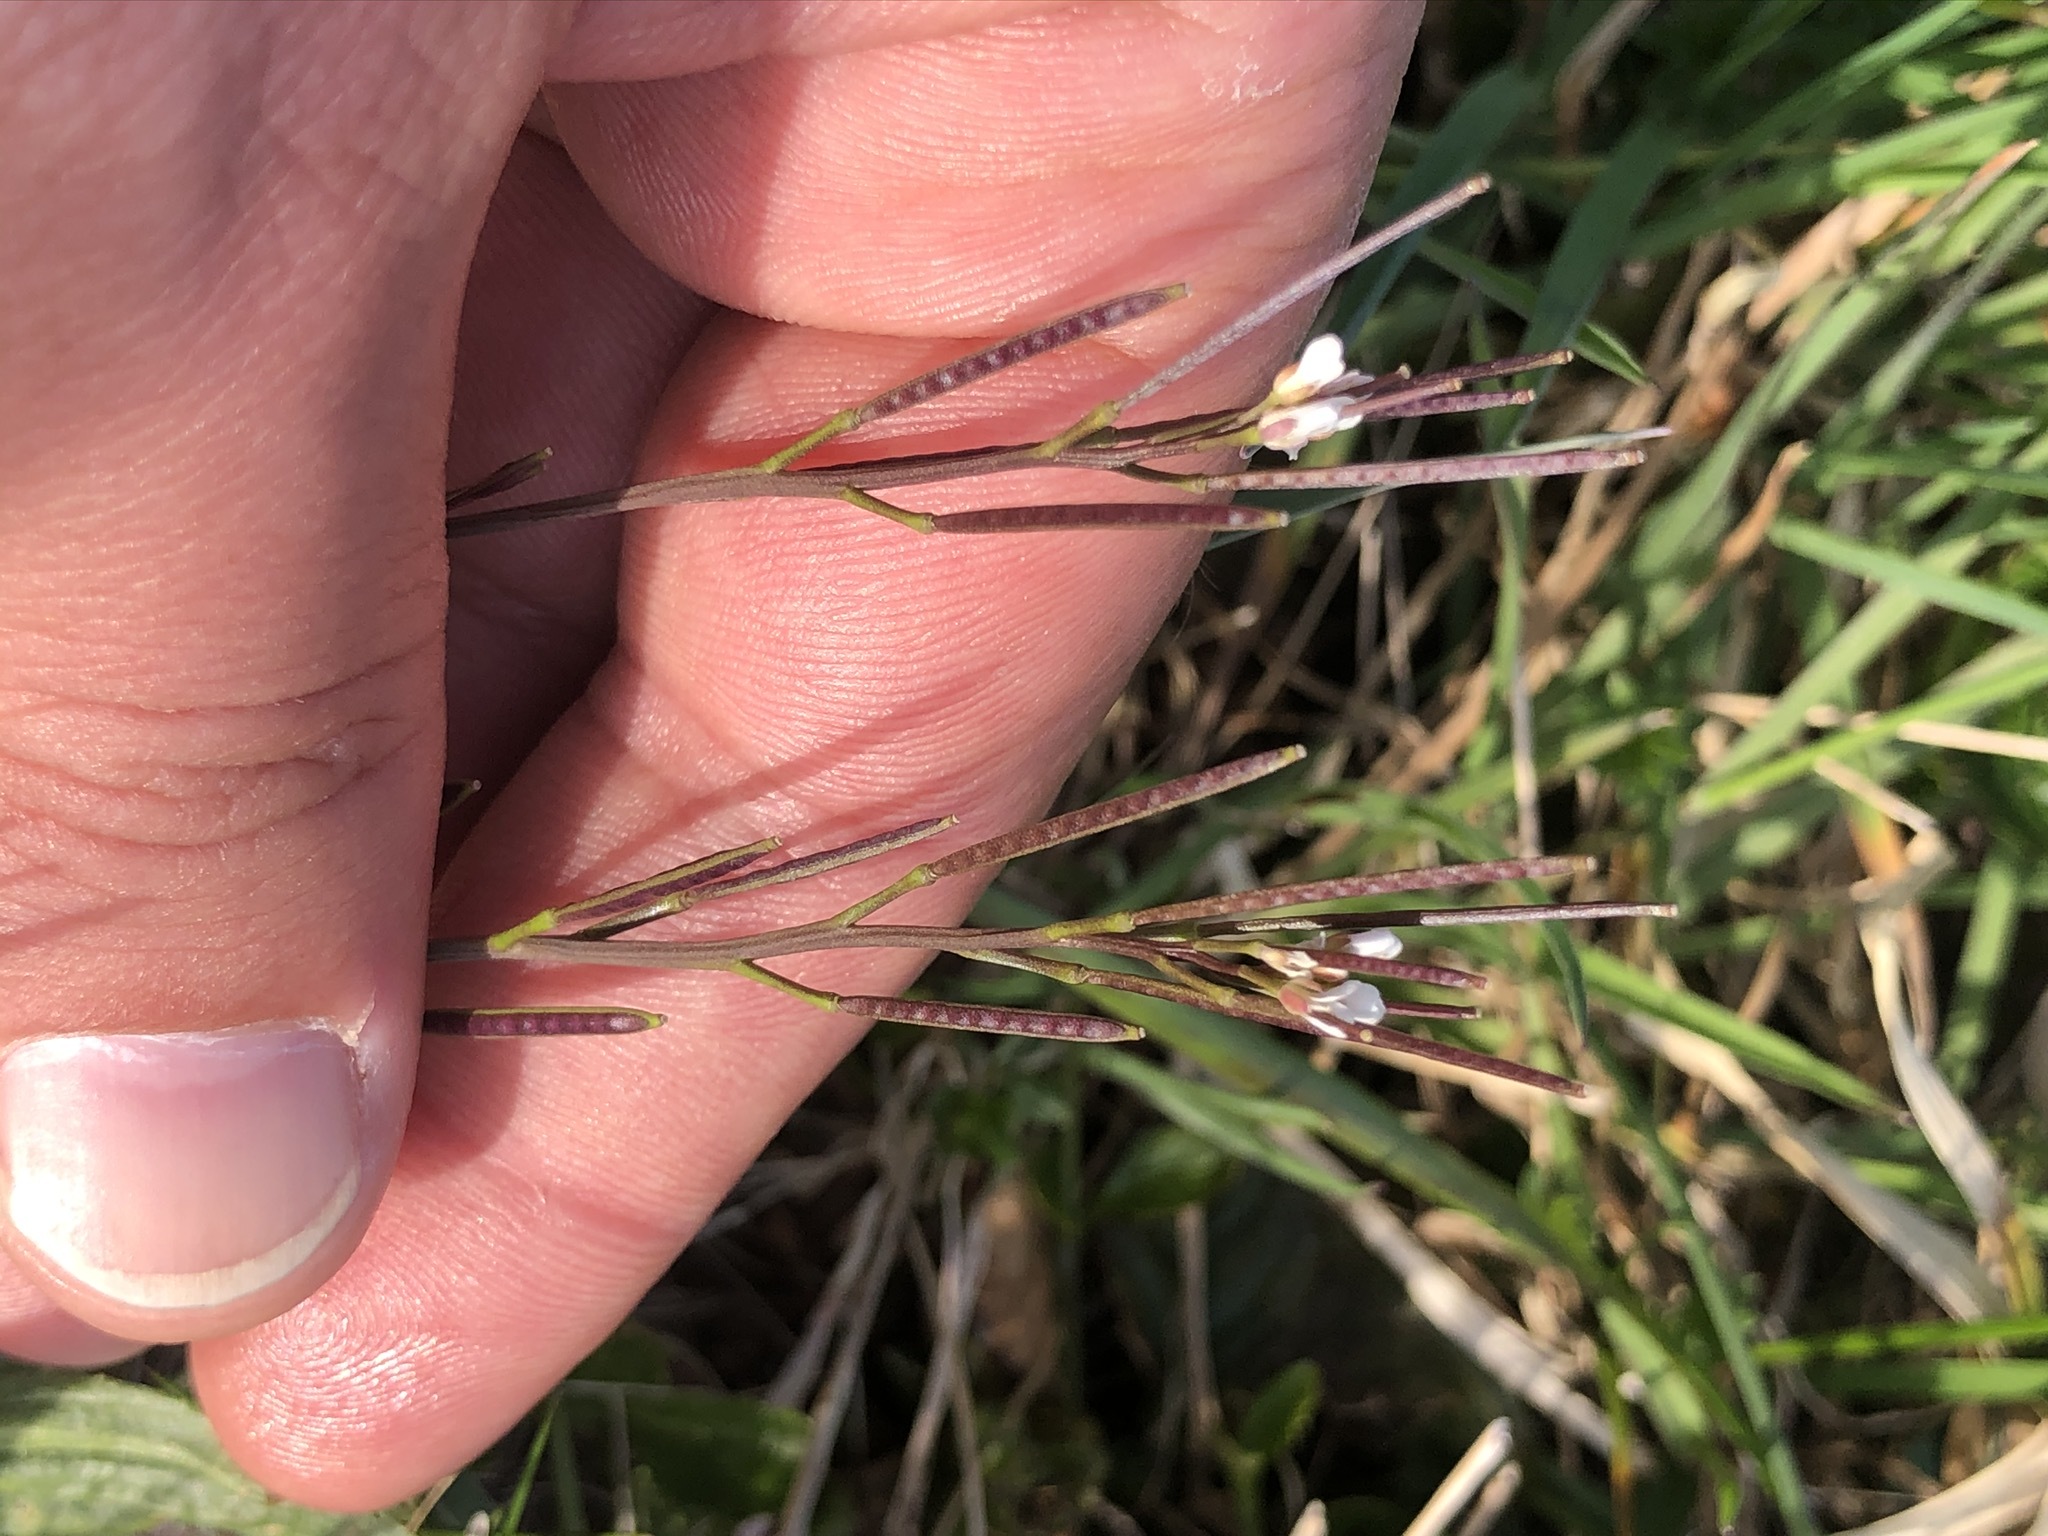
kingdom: Plantae
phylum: Tracheophyta
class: Magnoliopsida
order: Brassicales
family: Brassicaceae
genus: Cardamine
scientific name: Cardamine hirsuta
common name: Hairy bittercress
